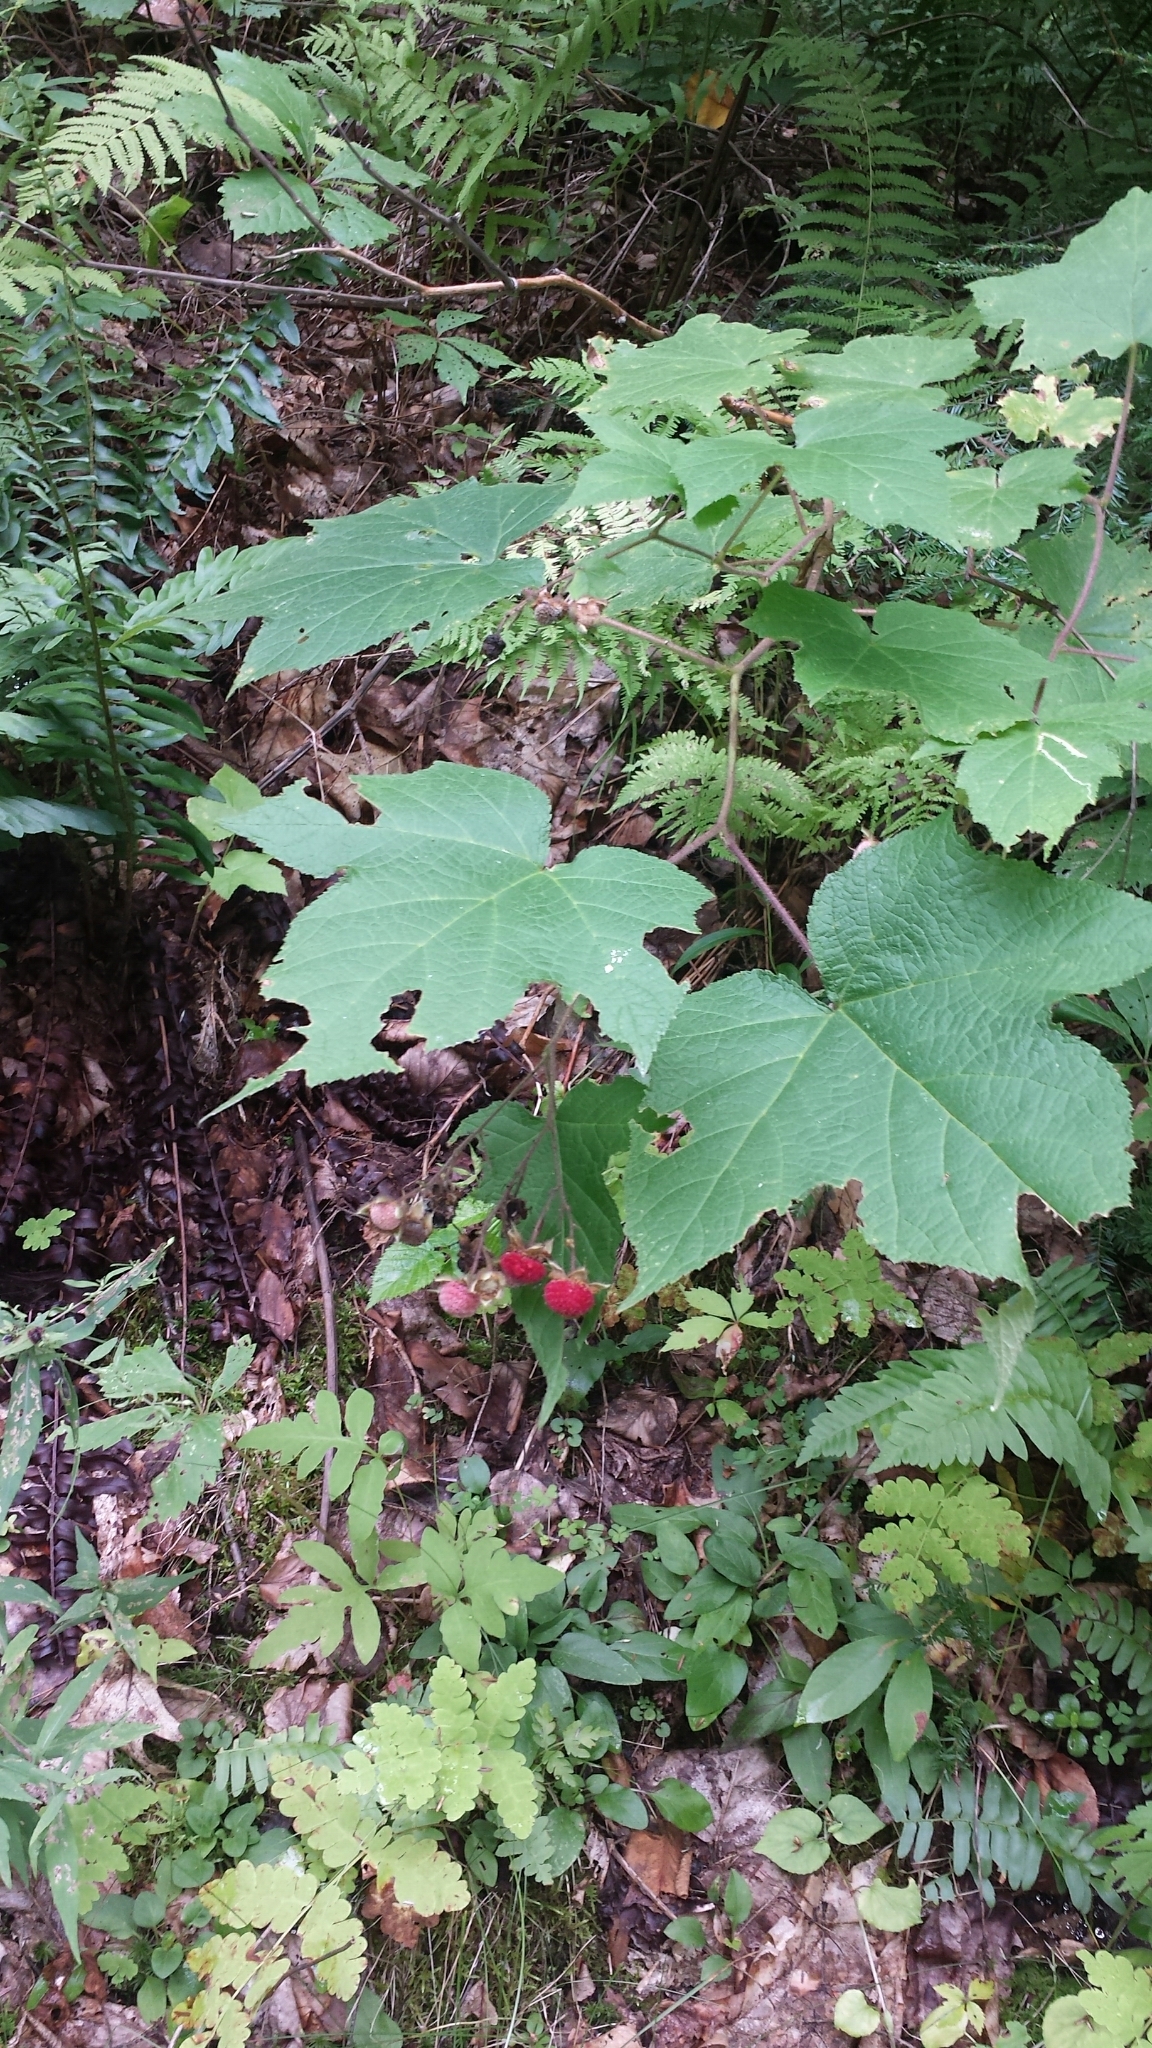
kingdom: Plantae
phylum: Tracheophyta
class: Magnoliopsida
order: Rosales
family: Rosaceae
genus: Rubus
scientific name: Rubus odoratus
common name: Purple-flowered raspberry
